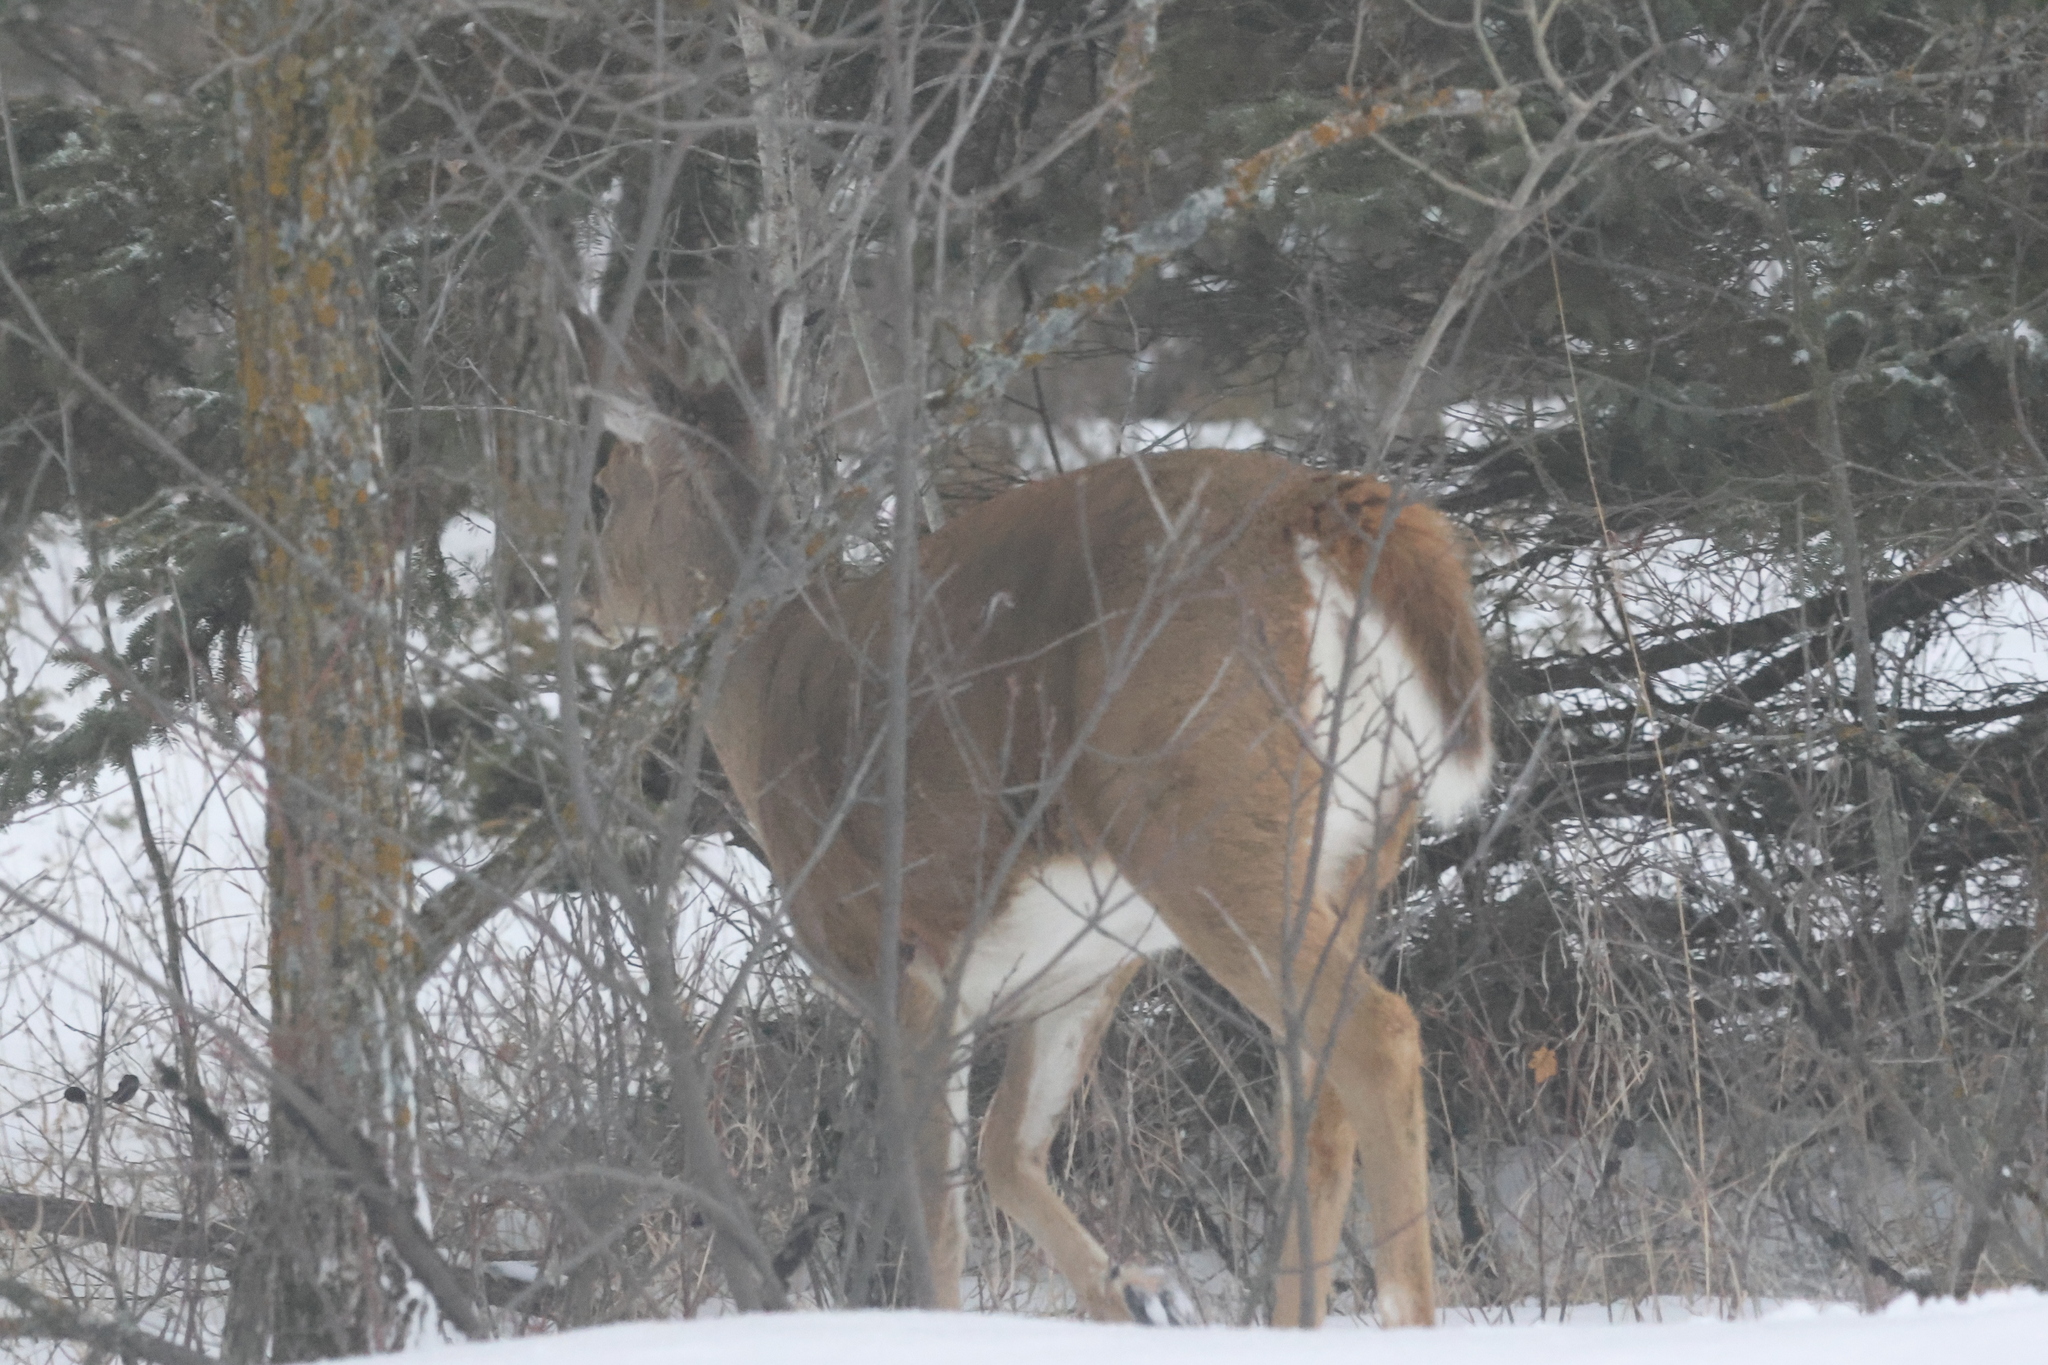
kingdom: Animalia
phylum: Chordata
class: Mammalia
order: Artiodactyla
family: Cervidae
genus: Odocoileus
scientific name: Odocoileus virginianus
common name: White-tailed deer
